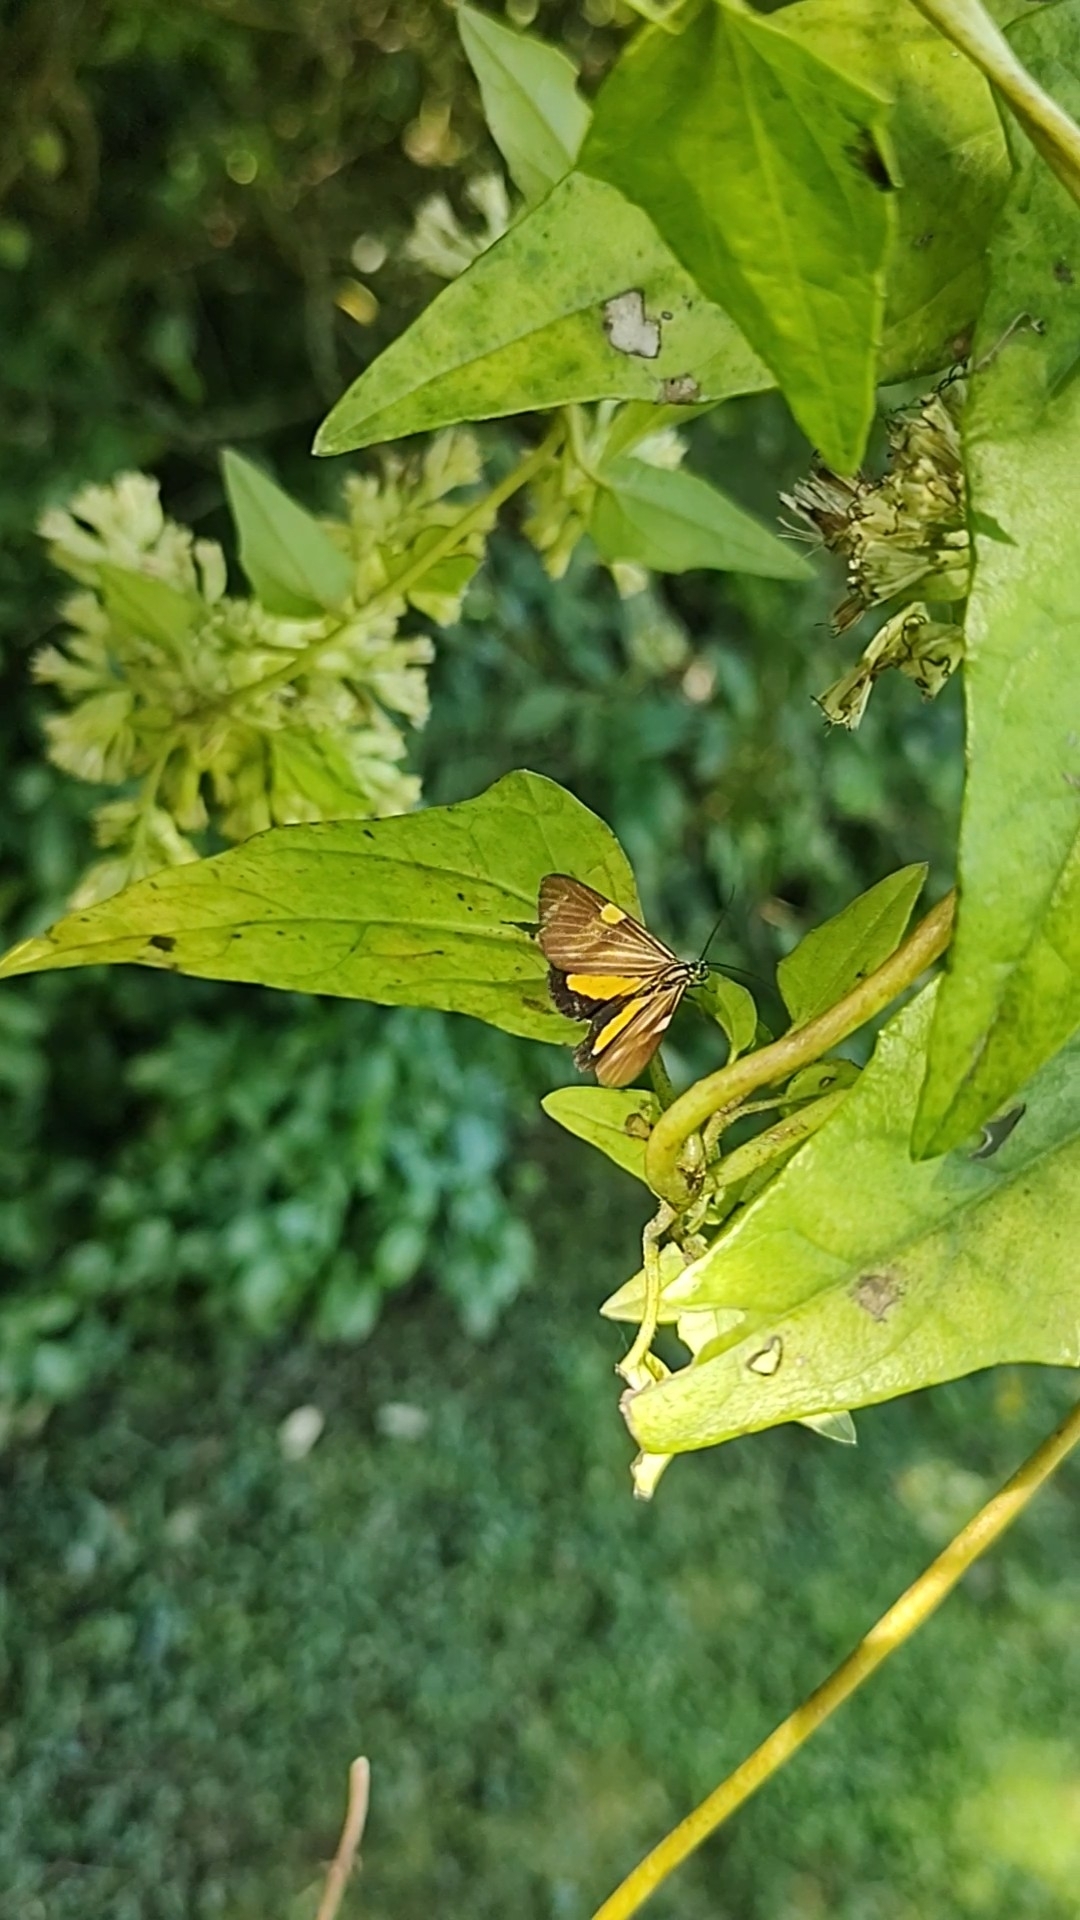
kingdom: Animalia
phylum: Arthropoda
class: Insecta
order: Lepidoptera
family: Notodontidae
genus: Phaeochlaena
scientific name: Phaeochlaena
